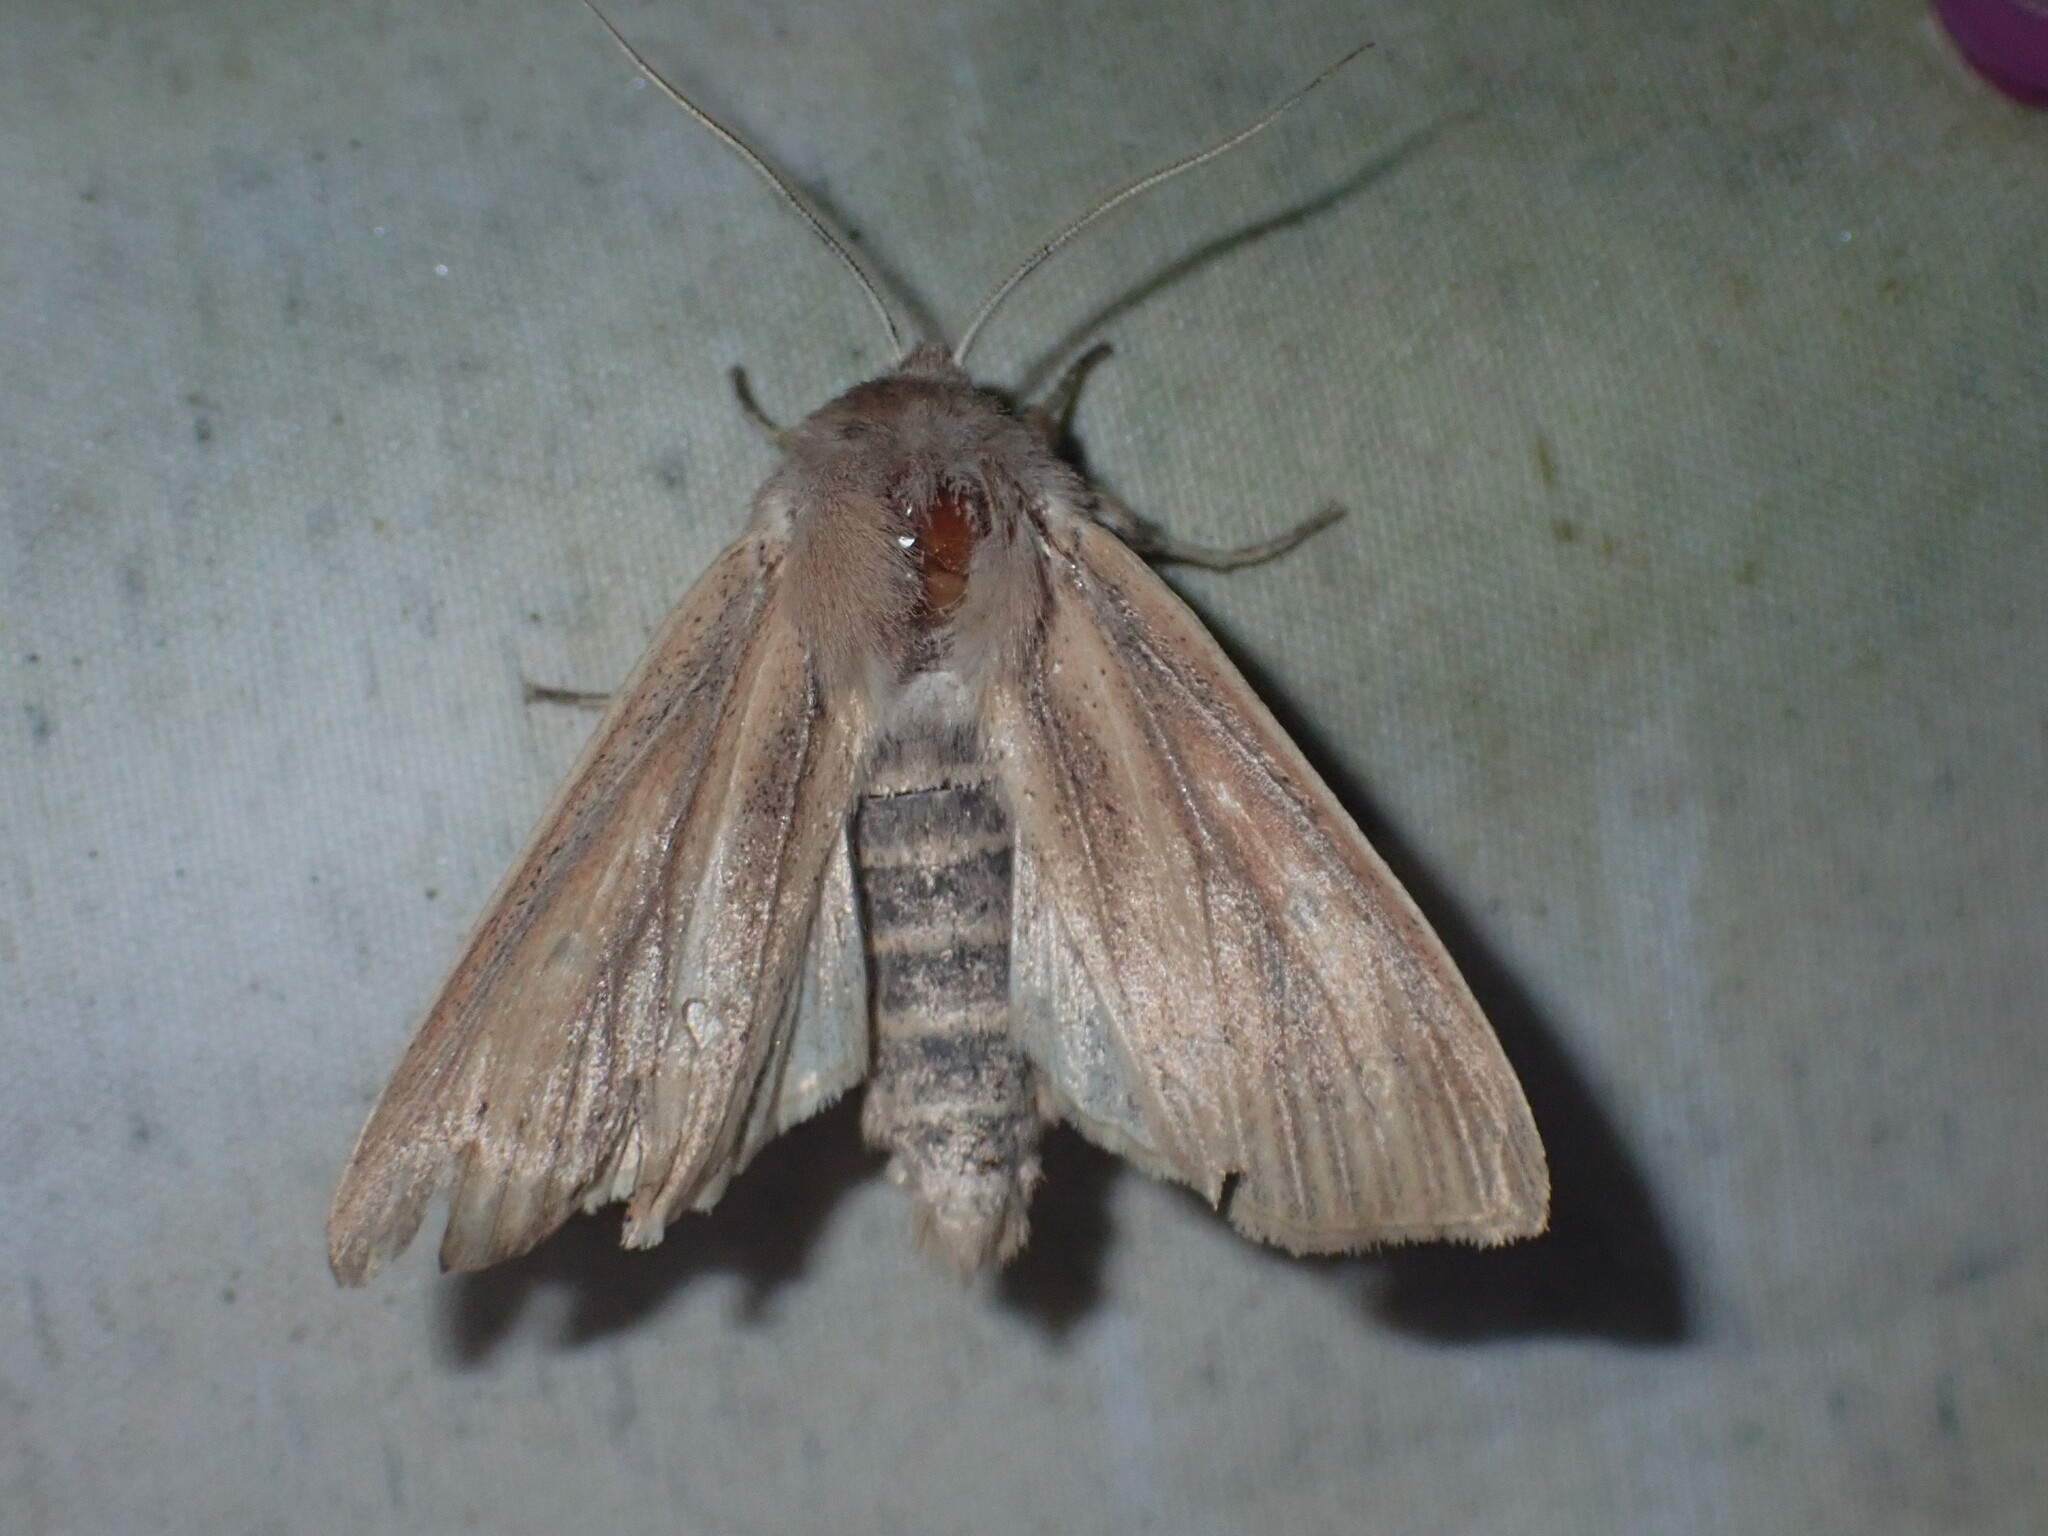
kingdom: Animalia
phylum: Arthropoda
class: Insecta
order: Lepidoptera
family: Noctuidae
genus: Mythimna
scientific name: Mythimna oxygala
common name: Lesser wainscot
